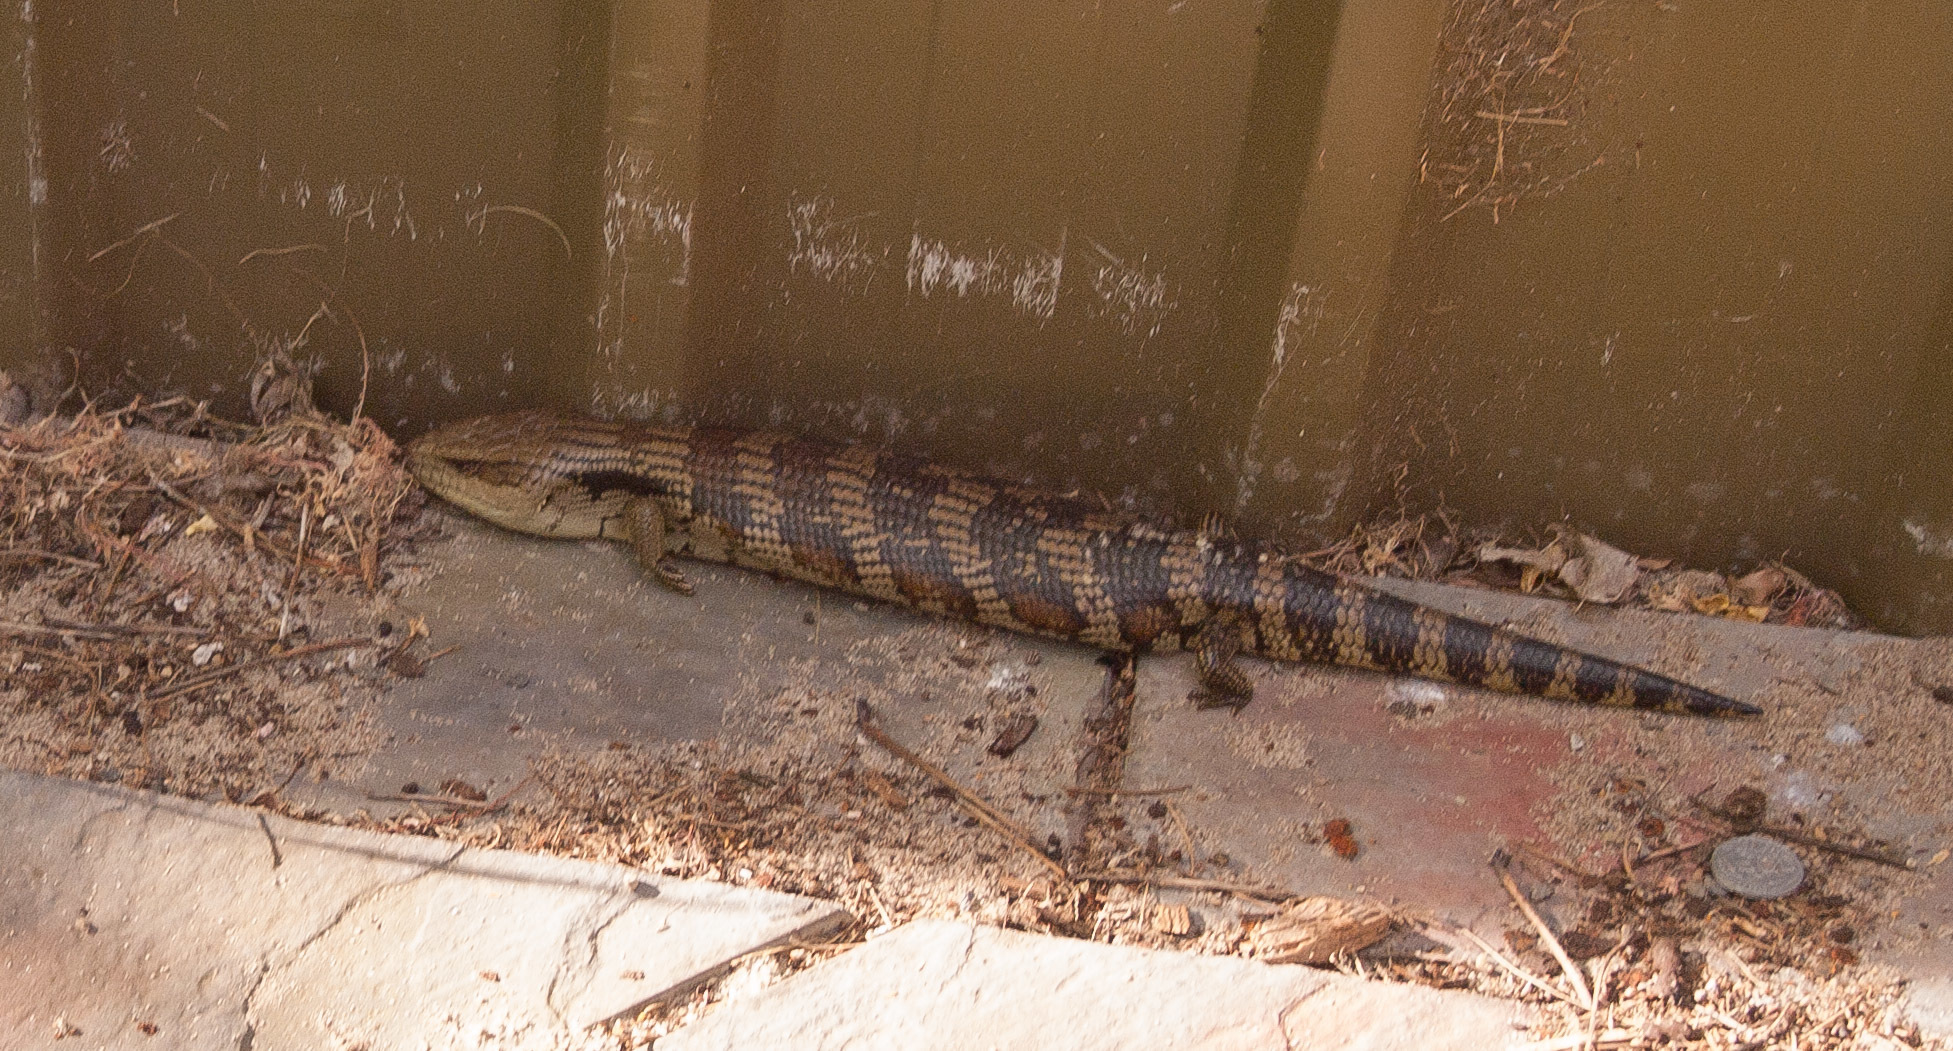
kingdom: Animalia
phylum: Chordata
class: Squamata
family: Scincidae
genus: Tiliqua
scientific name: Tiliqua scincoides
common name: Common bluetongue
